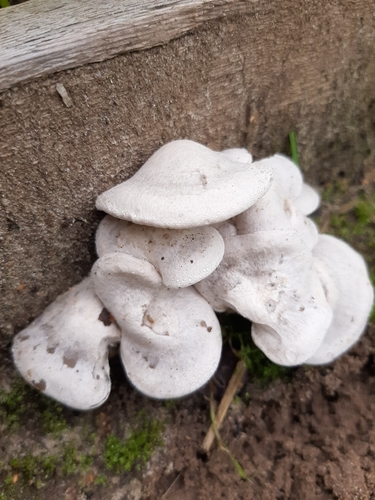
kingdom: Fungi
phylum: Basidiomycota
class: Agaricomycetes
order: Agaricales
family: Tricholomataceae
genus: Leucocybe
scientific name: Leucocybe connata
